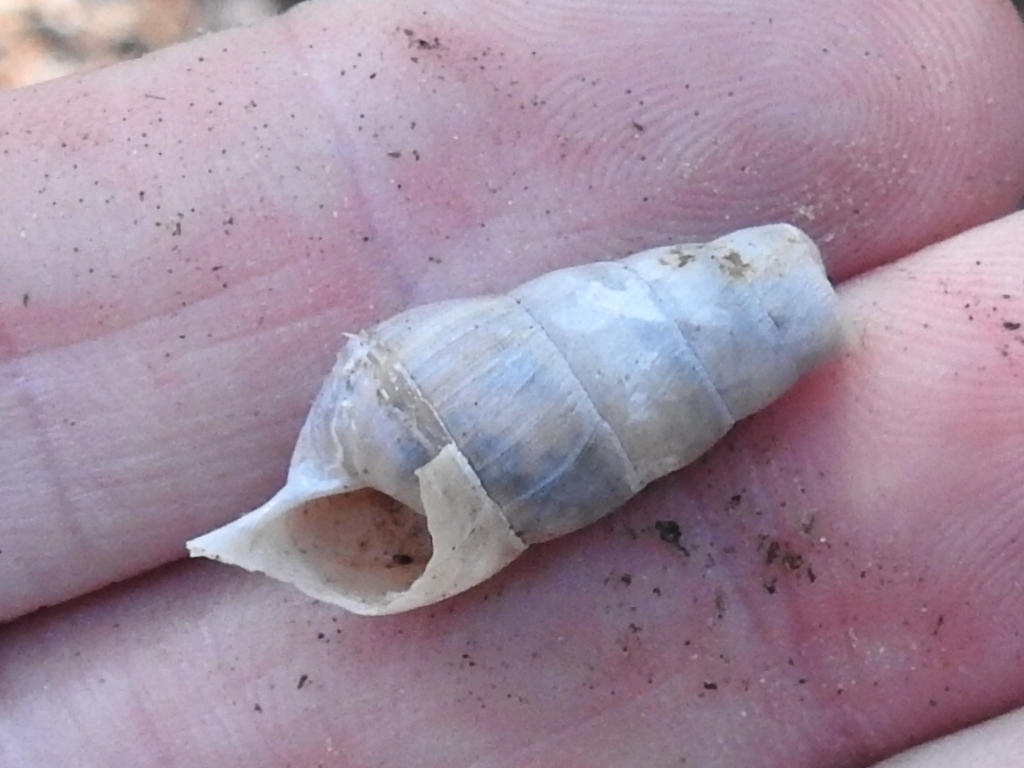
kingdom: Animalia
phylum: Mollusca
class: Gastropoda
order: Stylommatophora
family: Achatinidae
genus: Rumina
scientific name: Rumina decollata
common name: Decollate snail
